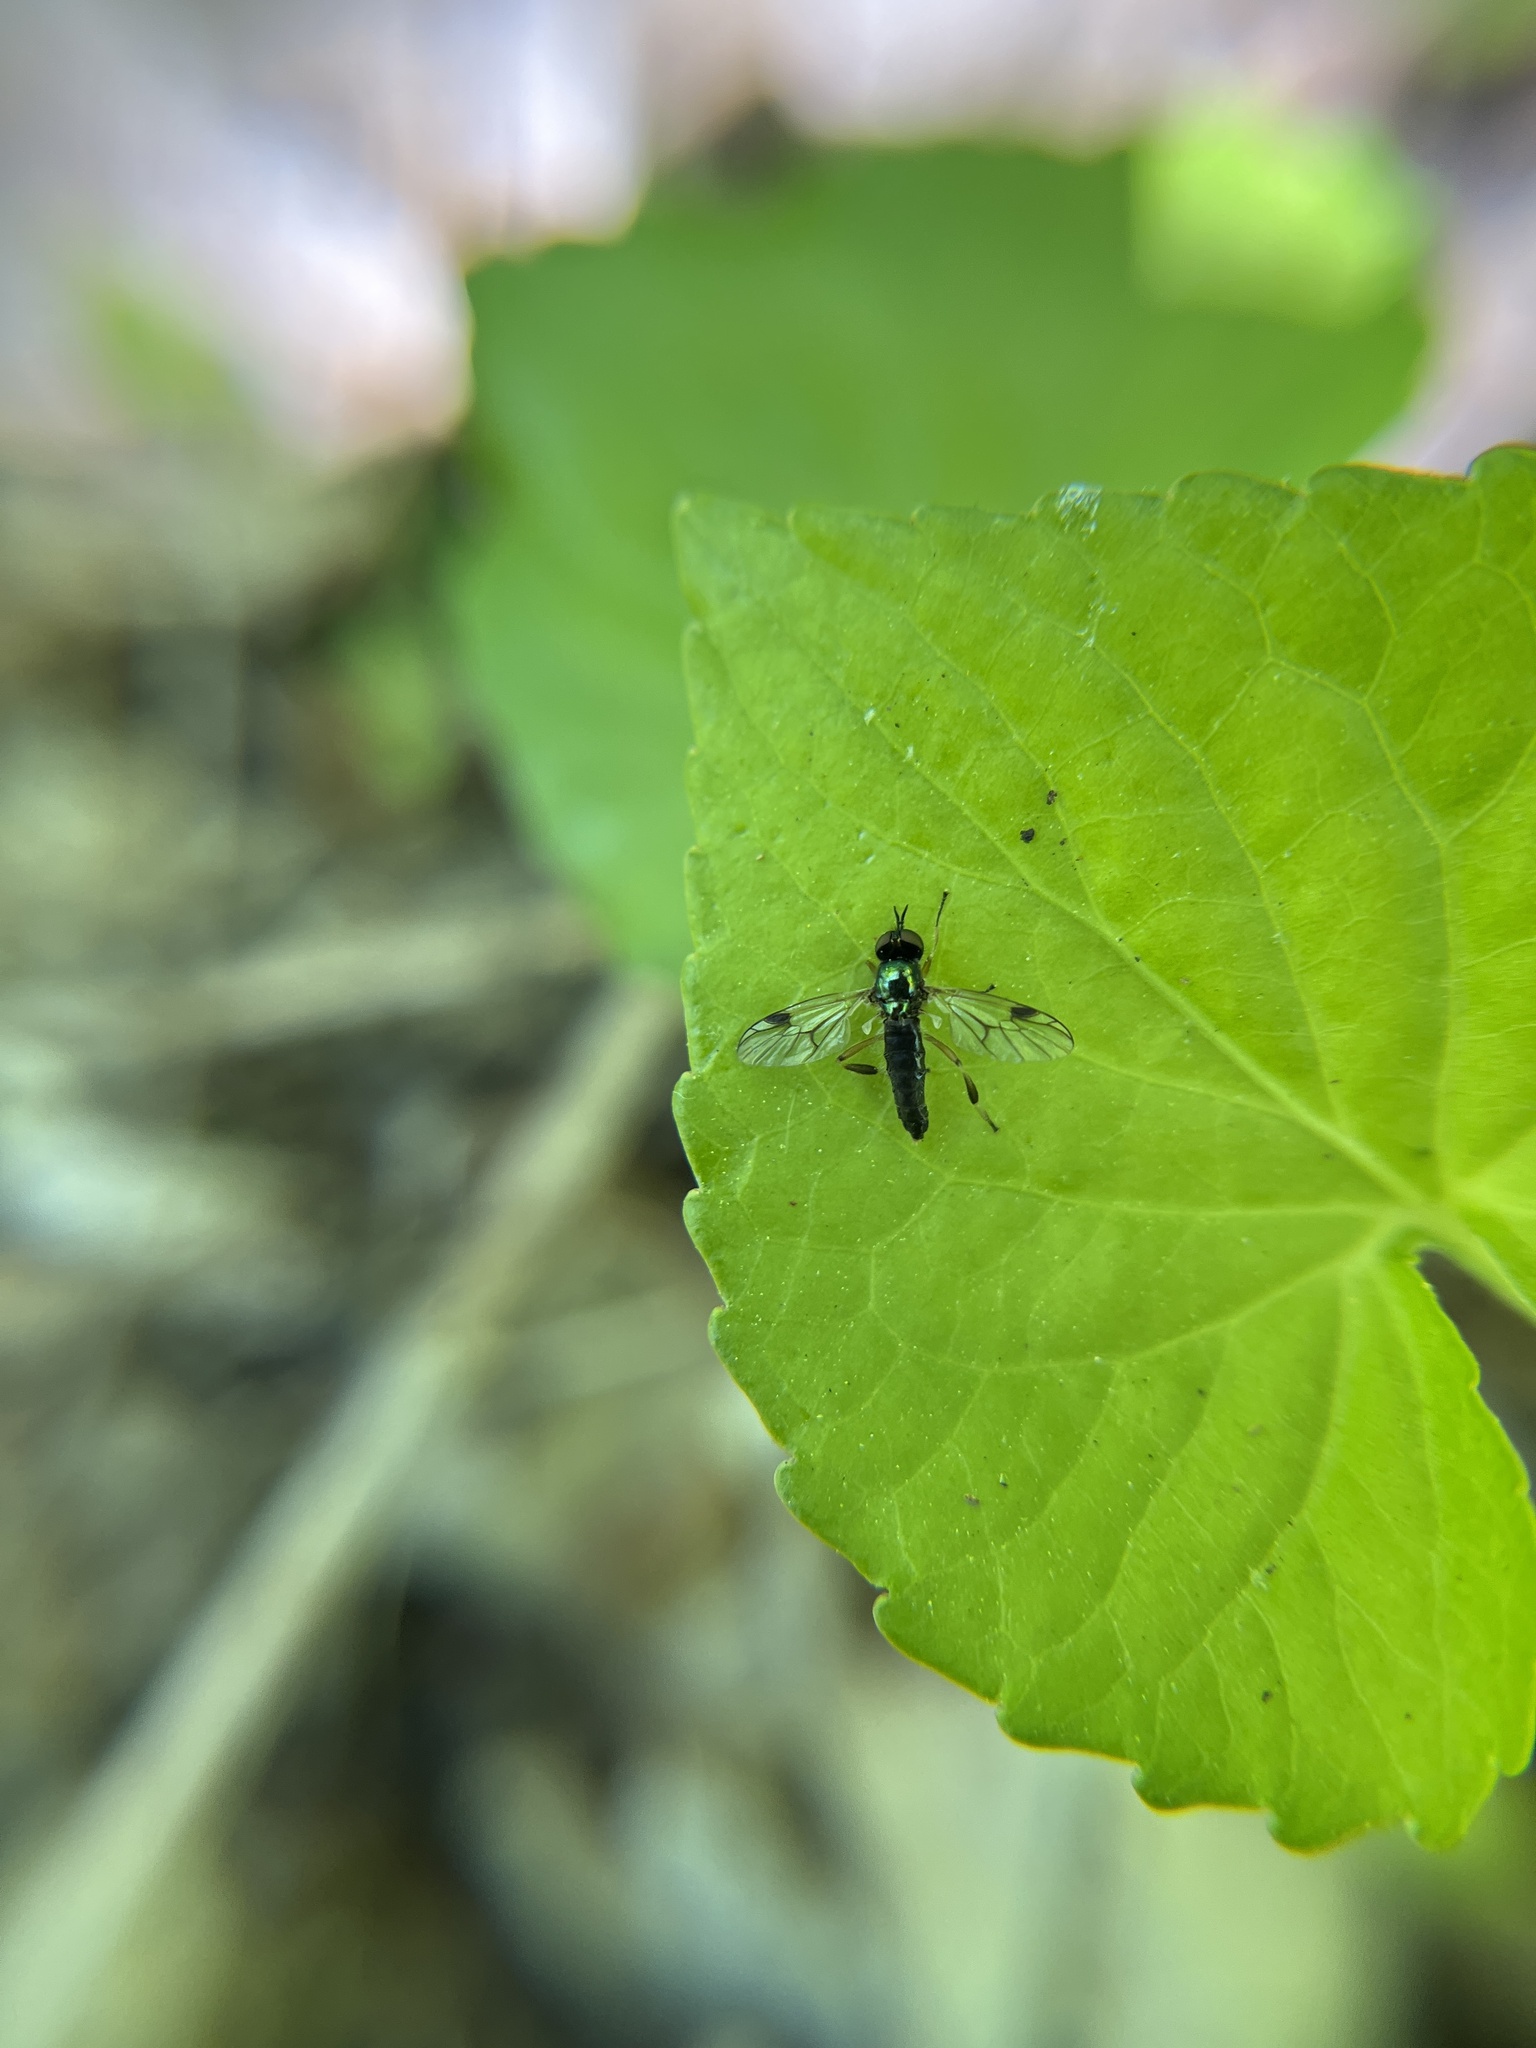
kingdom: Animalia
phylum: Arthropoda
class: Insecta
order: Diptera
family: Stratiomyidae
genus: Actina
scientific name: Actina viridis
